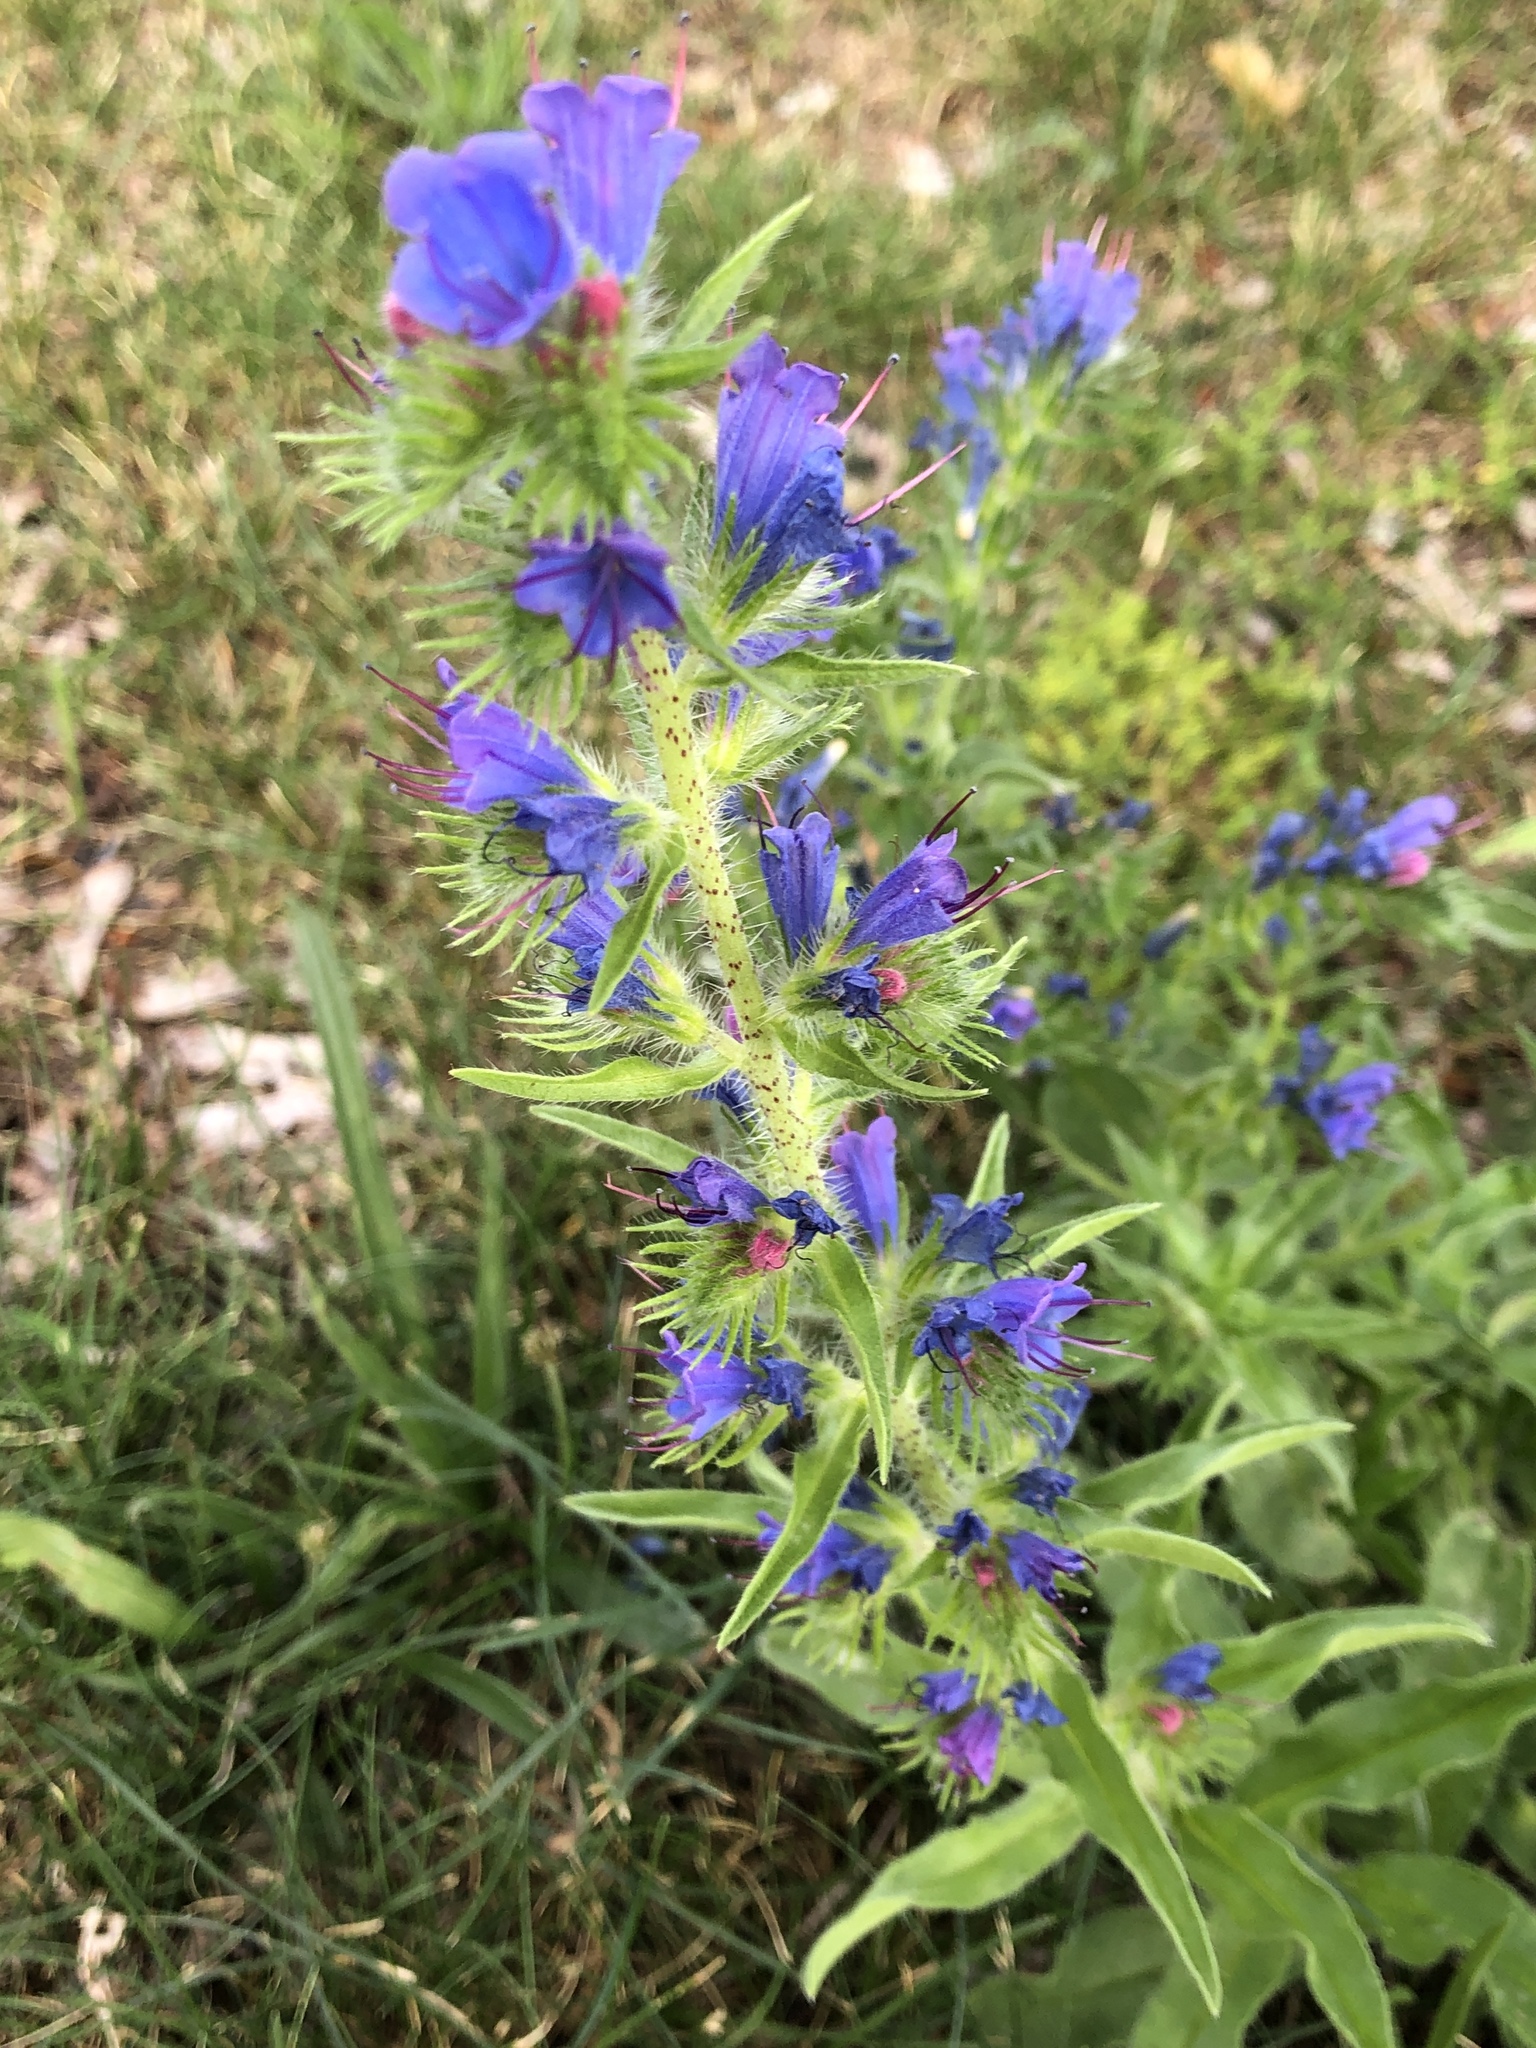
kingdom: Plantae
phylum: Tracheophyta
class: Magnoliopsida
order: Boraginales
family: Boraginaceae
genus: Echium
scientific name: Echium vulgare
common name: Common viper's bugloss
